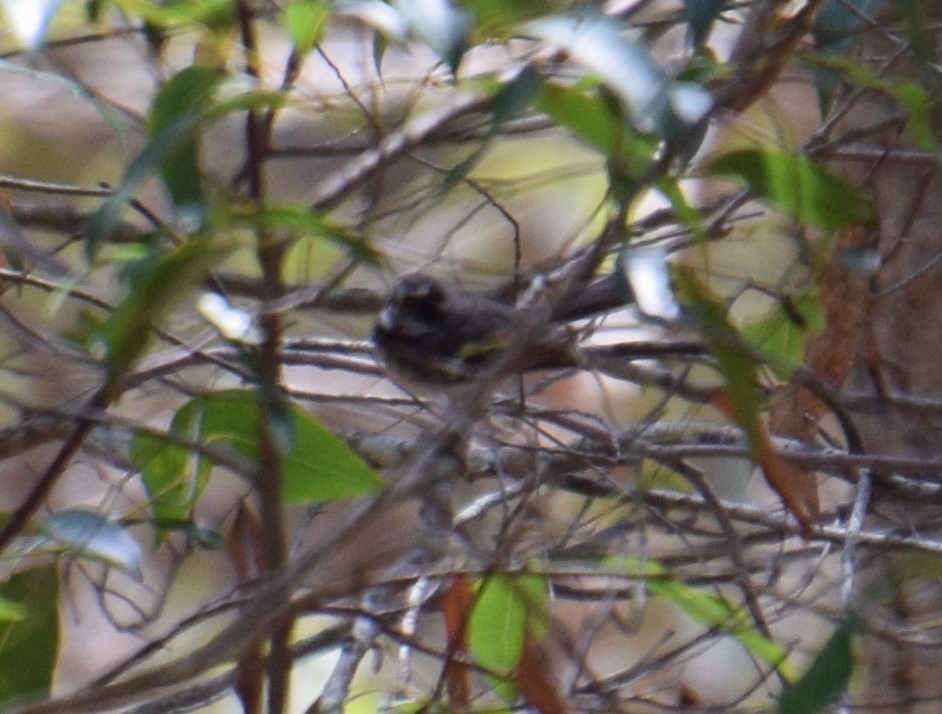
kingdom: Animalia
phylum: Chordata
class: Aves
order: Passeriformes
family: Rhipiduridae
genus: Rhipidura
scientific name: Rhipidura albiscapa
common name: Grey fantail
